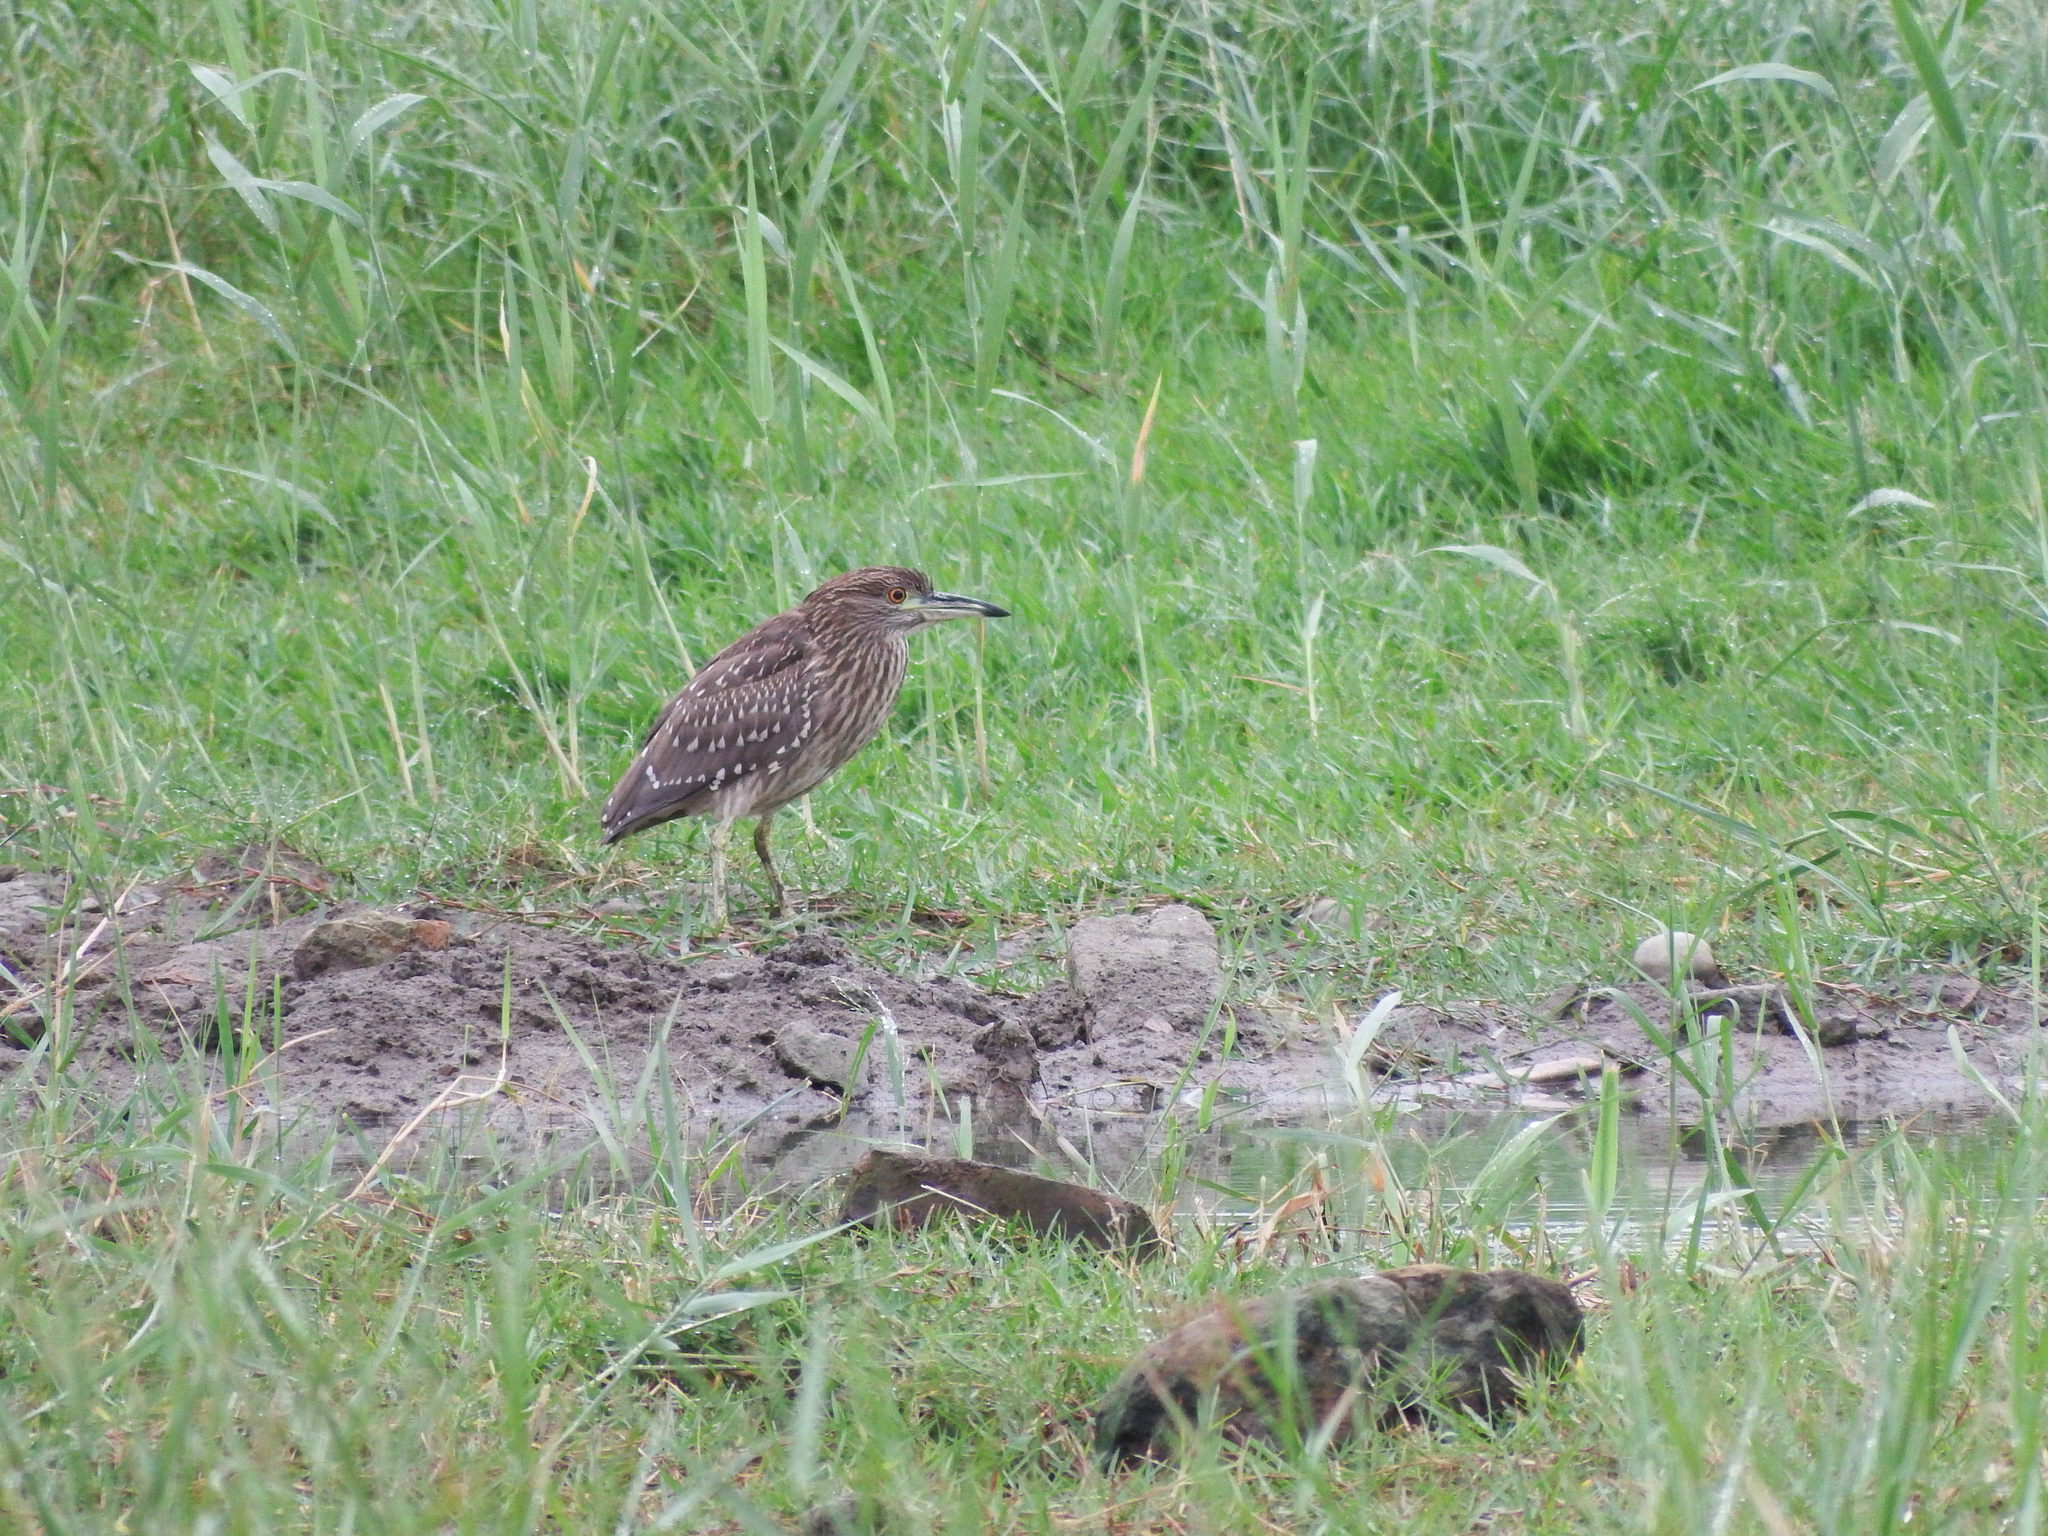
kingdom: Animalia
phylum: Chordata
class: Aves
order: Pelecaniformes
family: Ardeidae
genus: Nycticorax
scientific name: Nycticorax nycticorax
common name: Black-crowned night heron
